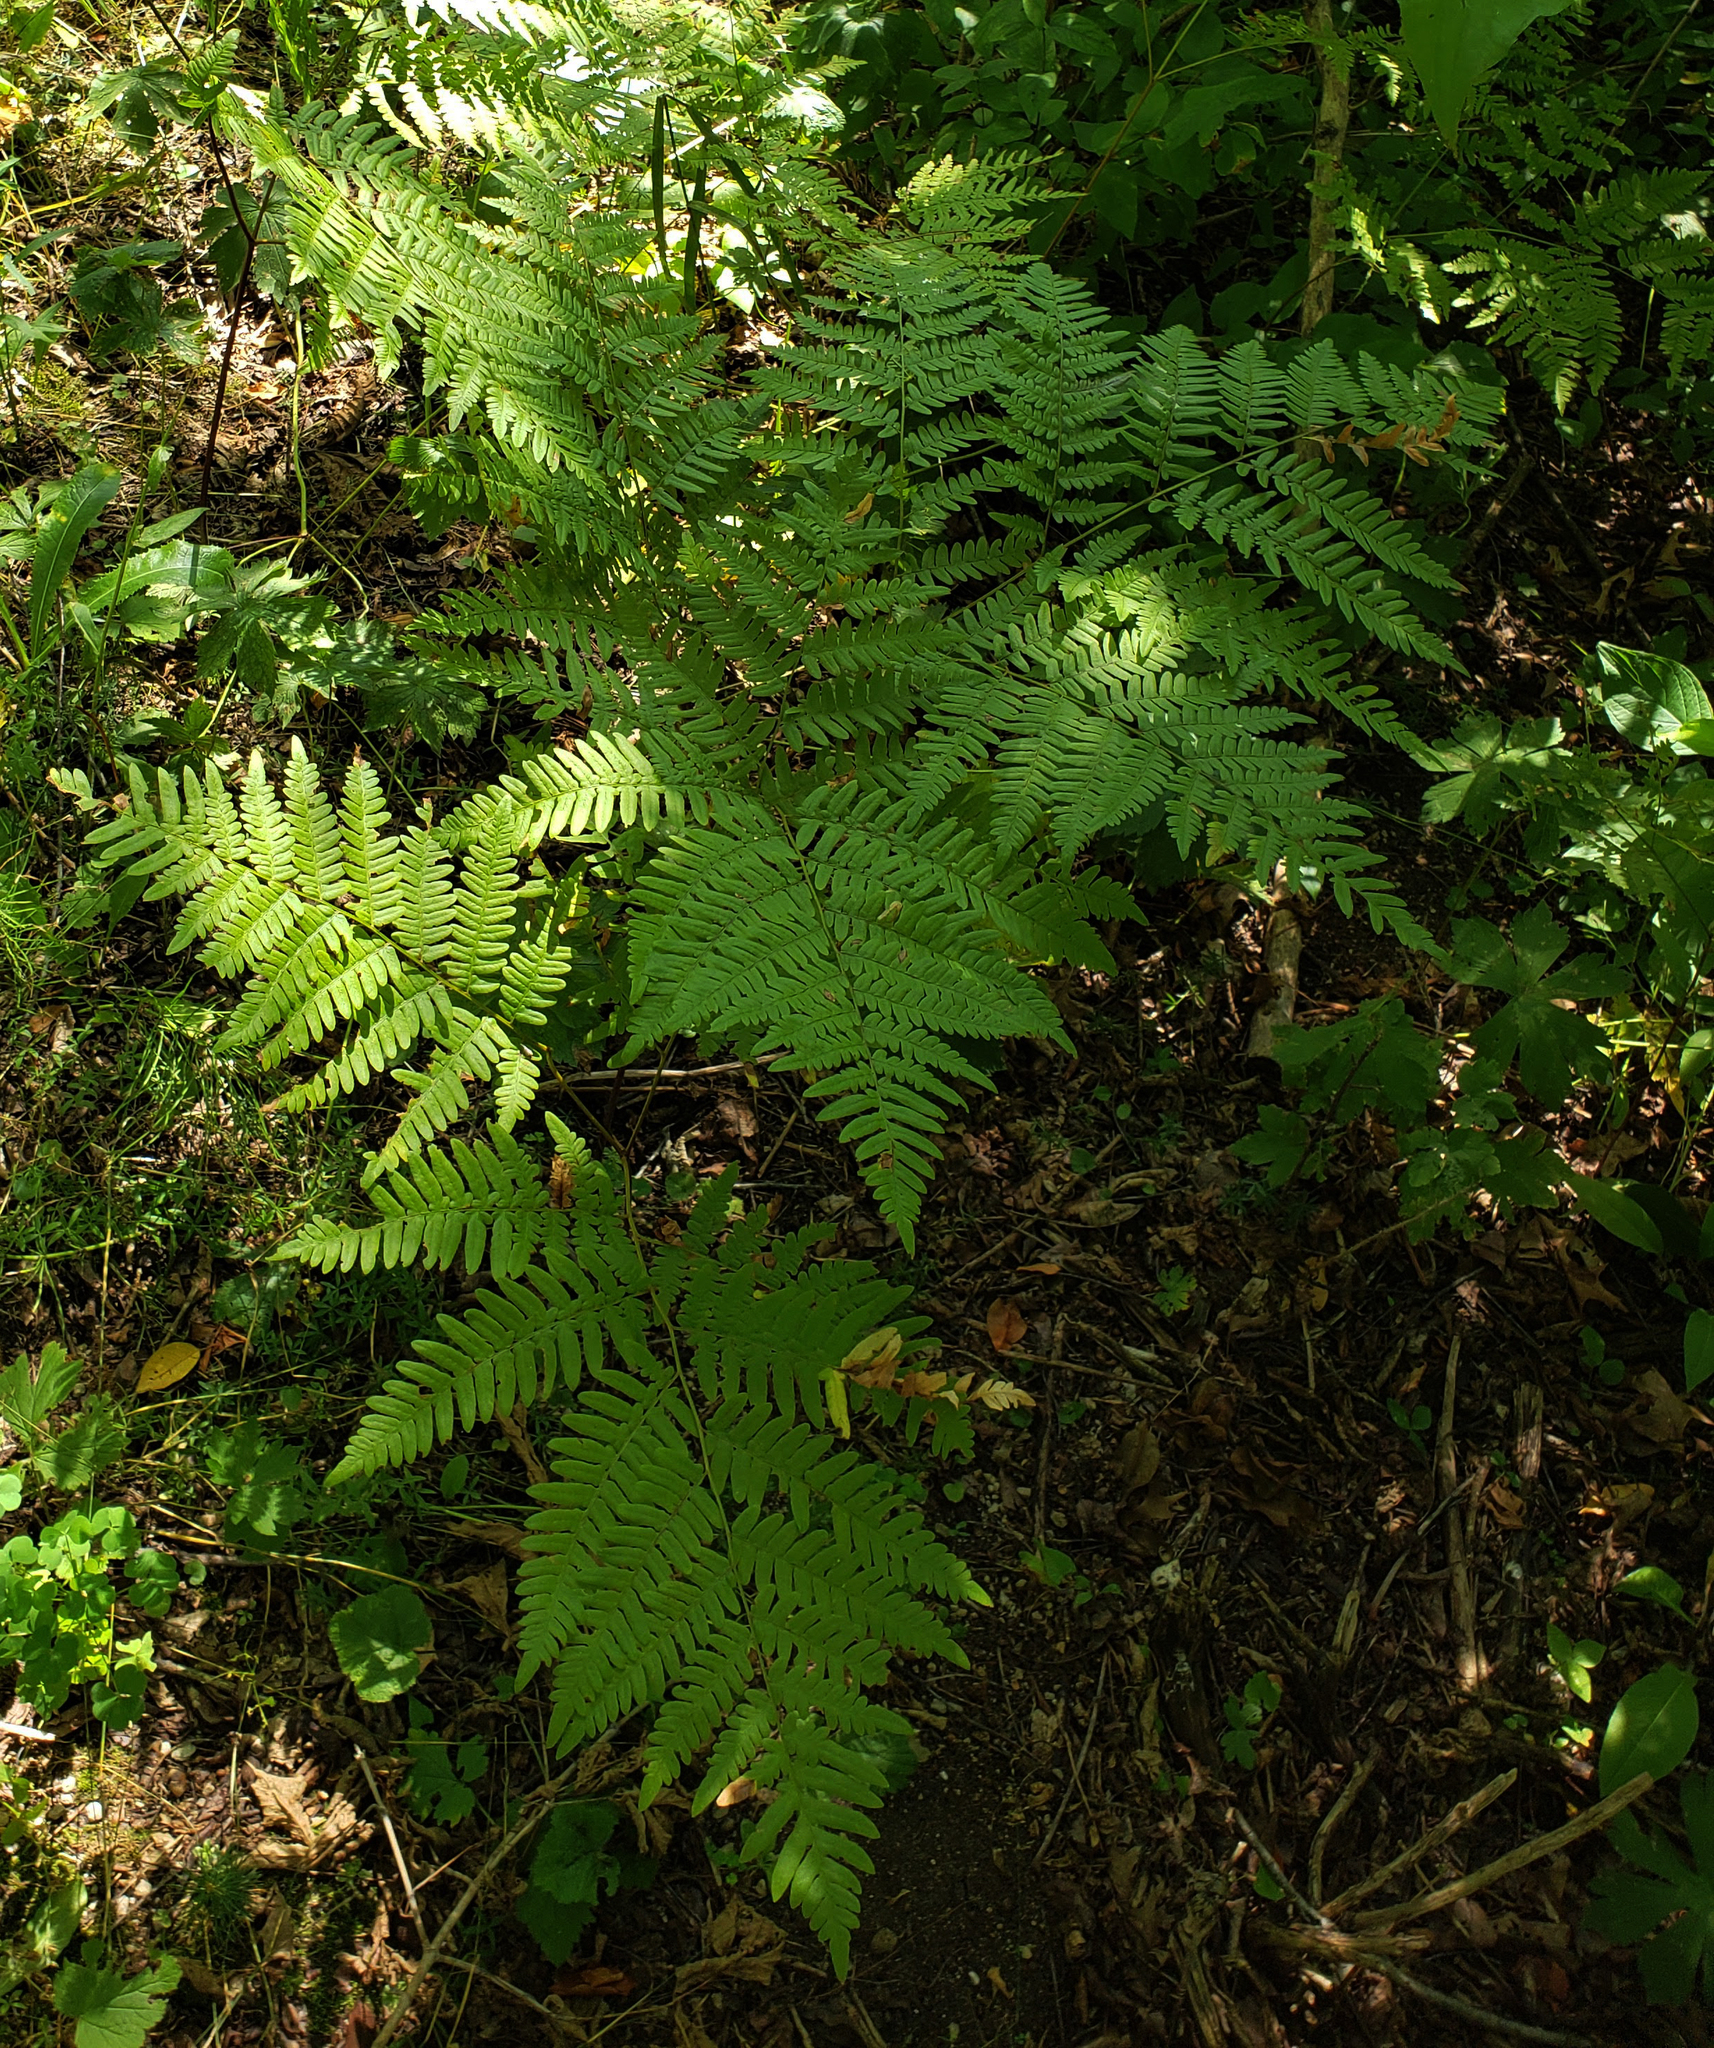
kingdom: Plantae
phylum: Tracheophyta
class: Polypodiopsida
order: Polypodiales
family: Dennstaedtiaceae
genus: Pteridium
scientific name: Pteridium aquilinum
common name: Bracken
